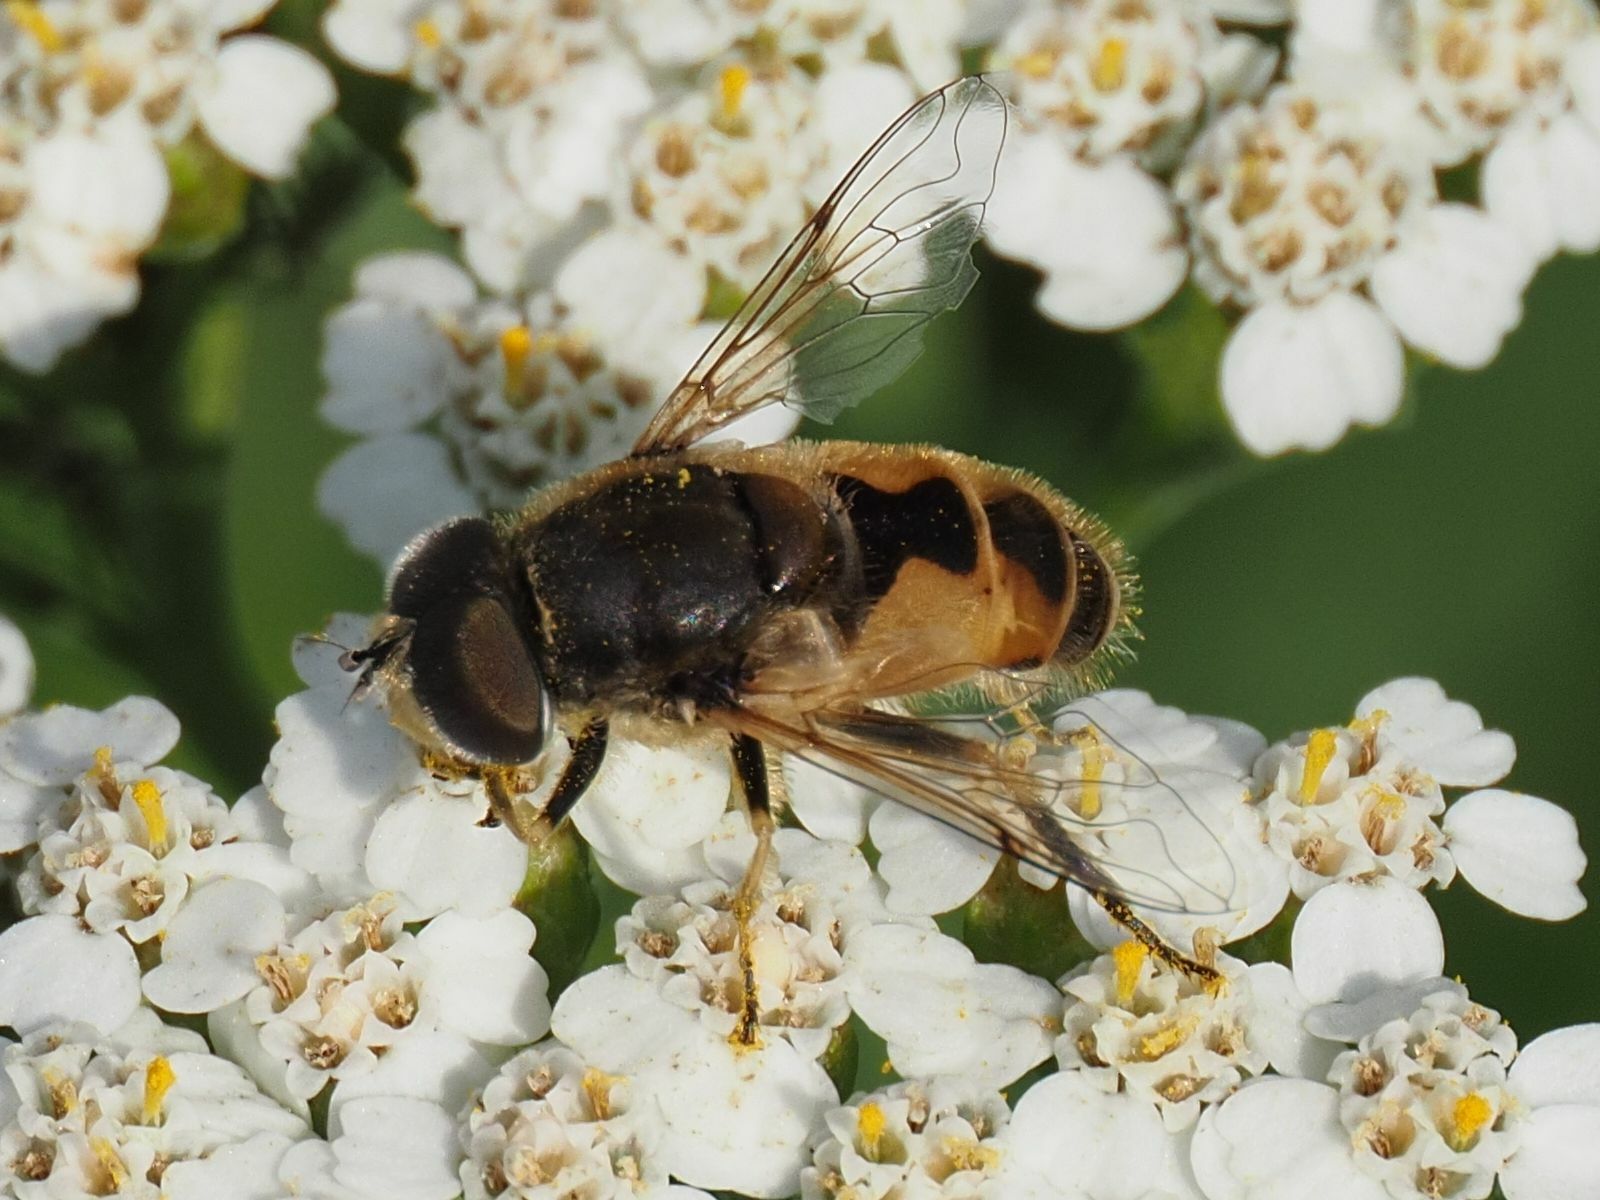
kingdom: Animalia
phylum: Arthropoda
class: Insecta
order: Diptera
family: Syrphidae
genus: Eristalis
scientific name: Eristalis arbustorum
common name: Hover fly
